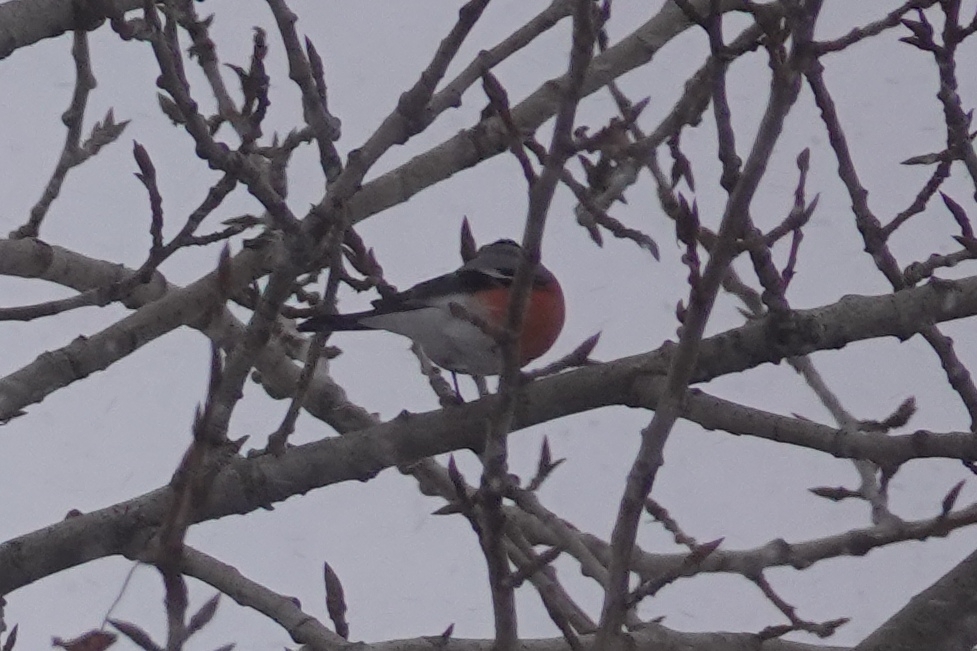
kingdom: Animalia
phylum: Chordata
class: Aves
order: Passeriformes
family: Fringillidae
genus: Pyrrhula
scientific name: Pyrrhula pyrrhula
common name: Eurasian bullfinch
